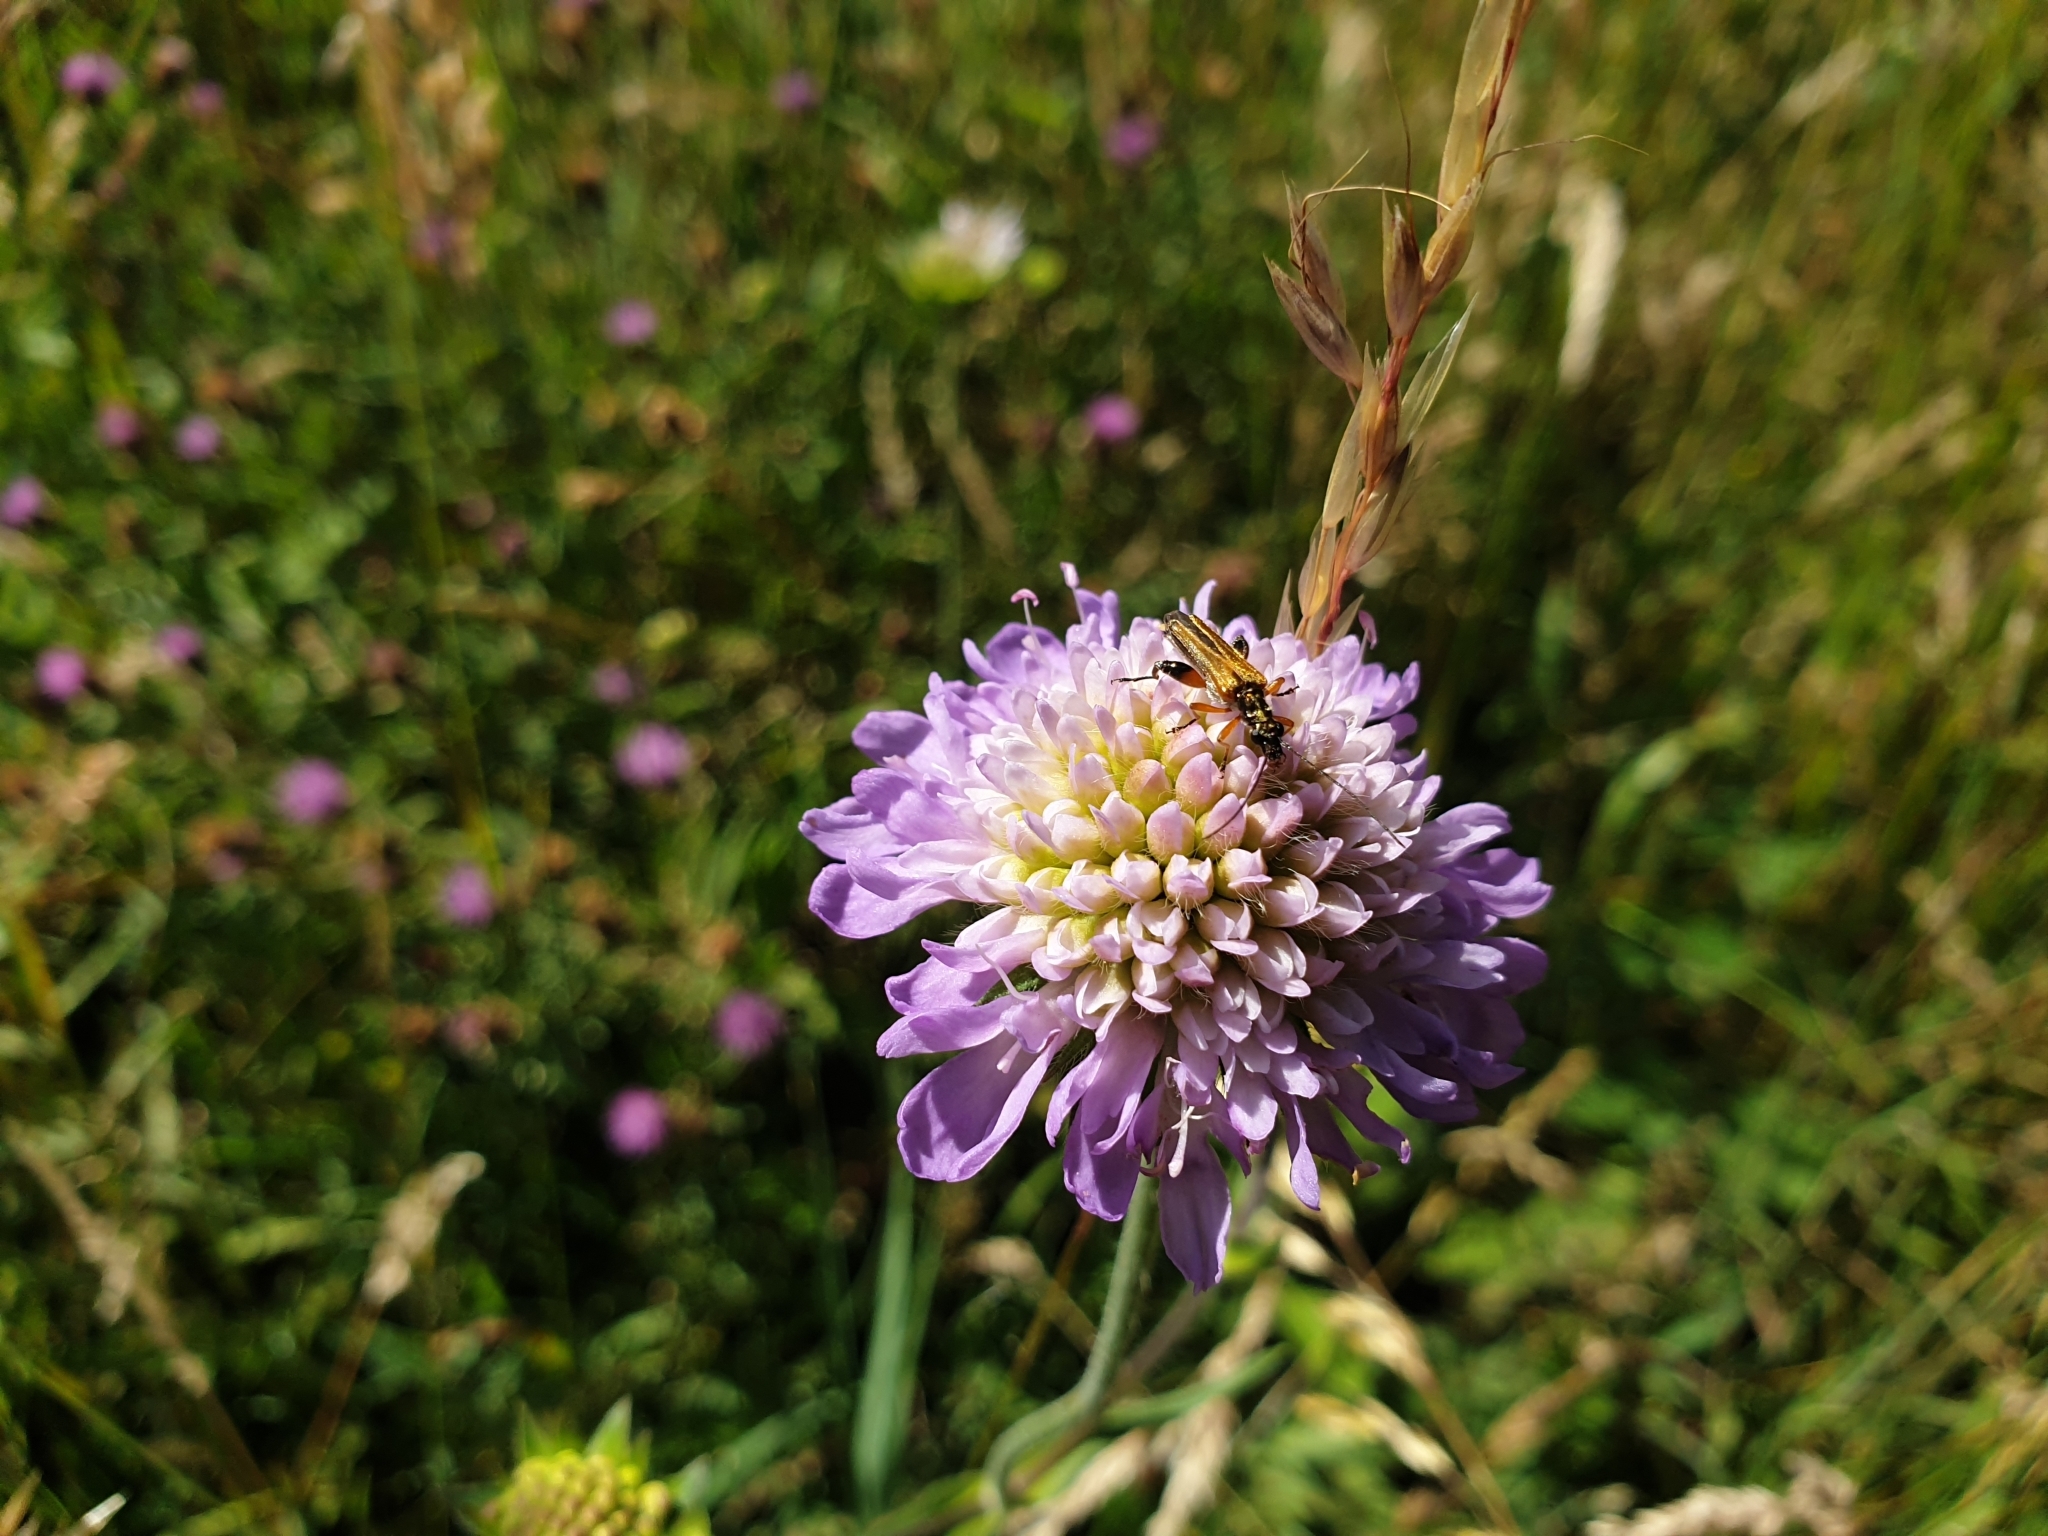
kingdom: Plantae
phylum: Tracheophyta
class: Magnoliopsida
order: Dipsacales
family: Caprifoliaceae
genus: Knautia
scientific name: Knautia arvensis
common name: Field scabiosa
